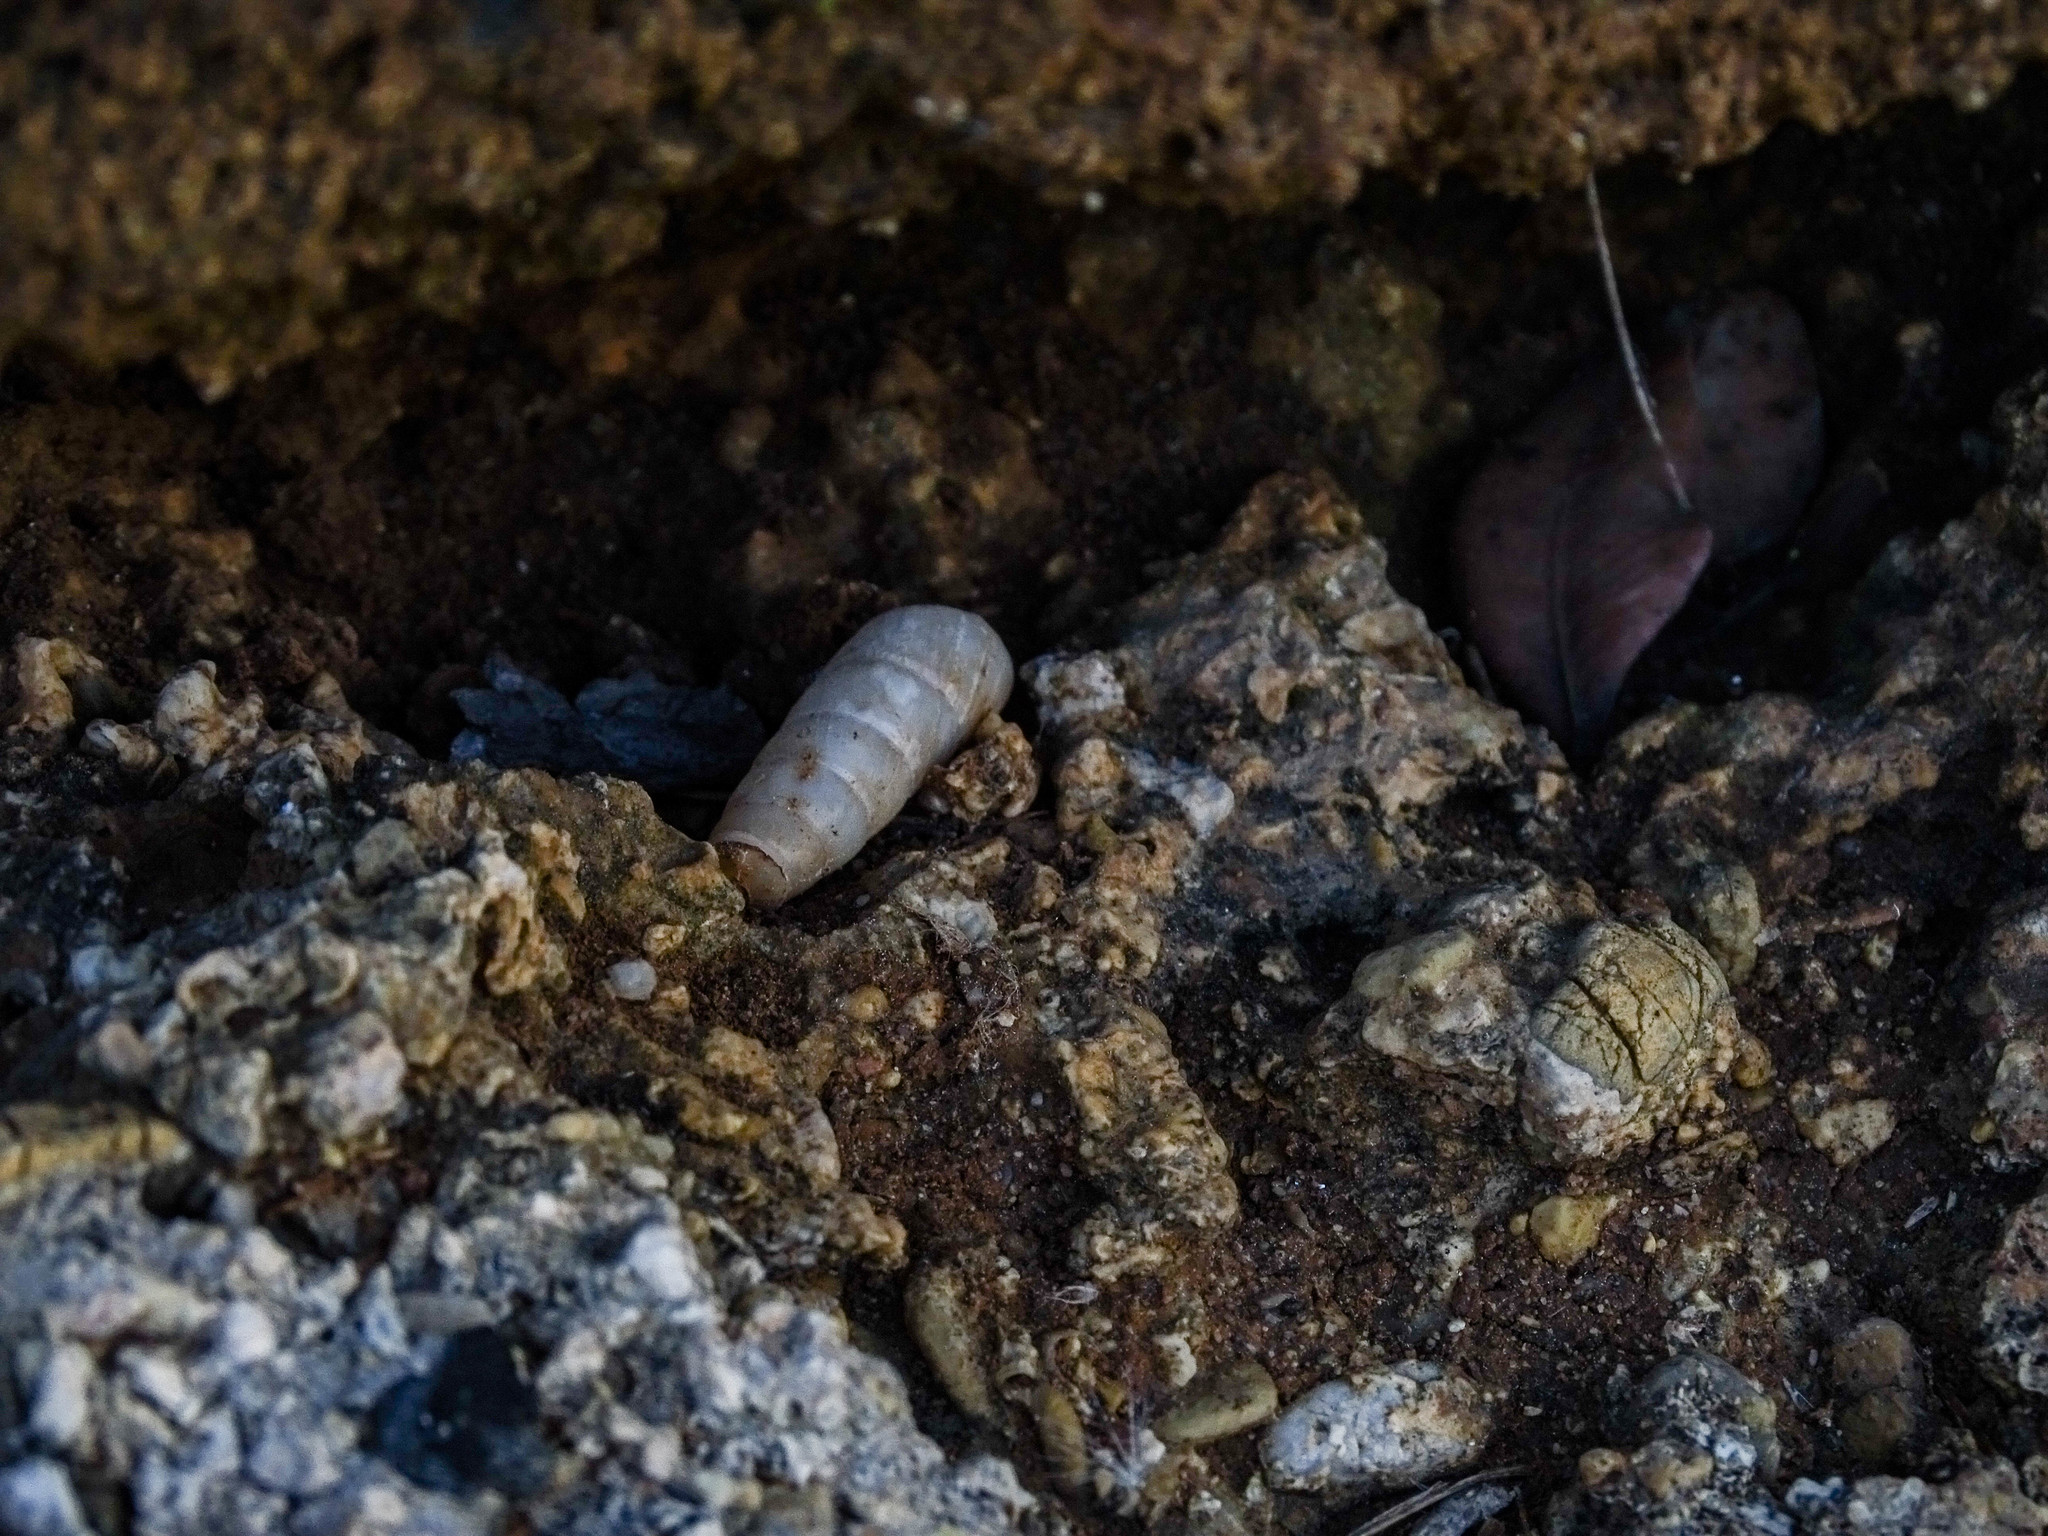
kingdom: Animalia
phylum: Mollusca
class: Gastropoda
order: Stylommatophora
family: Achatinidae
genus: Rumina
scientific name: Rumina saharica
